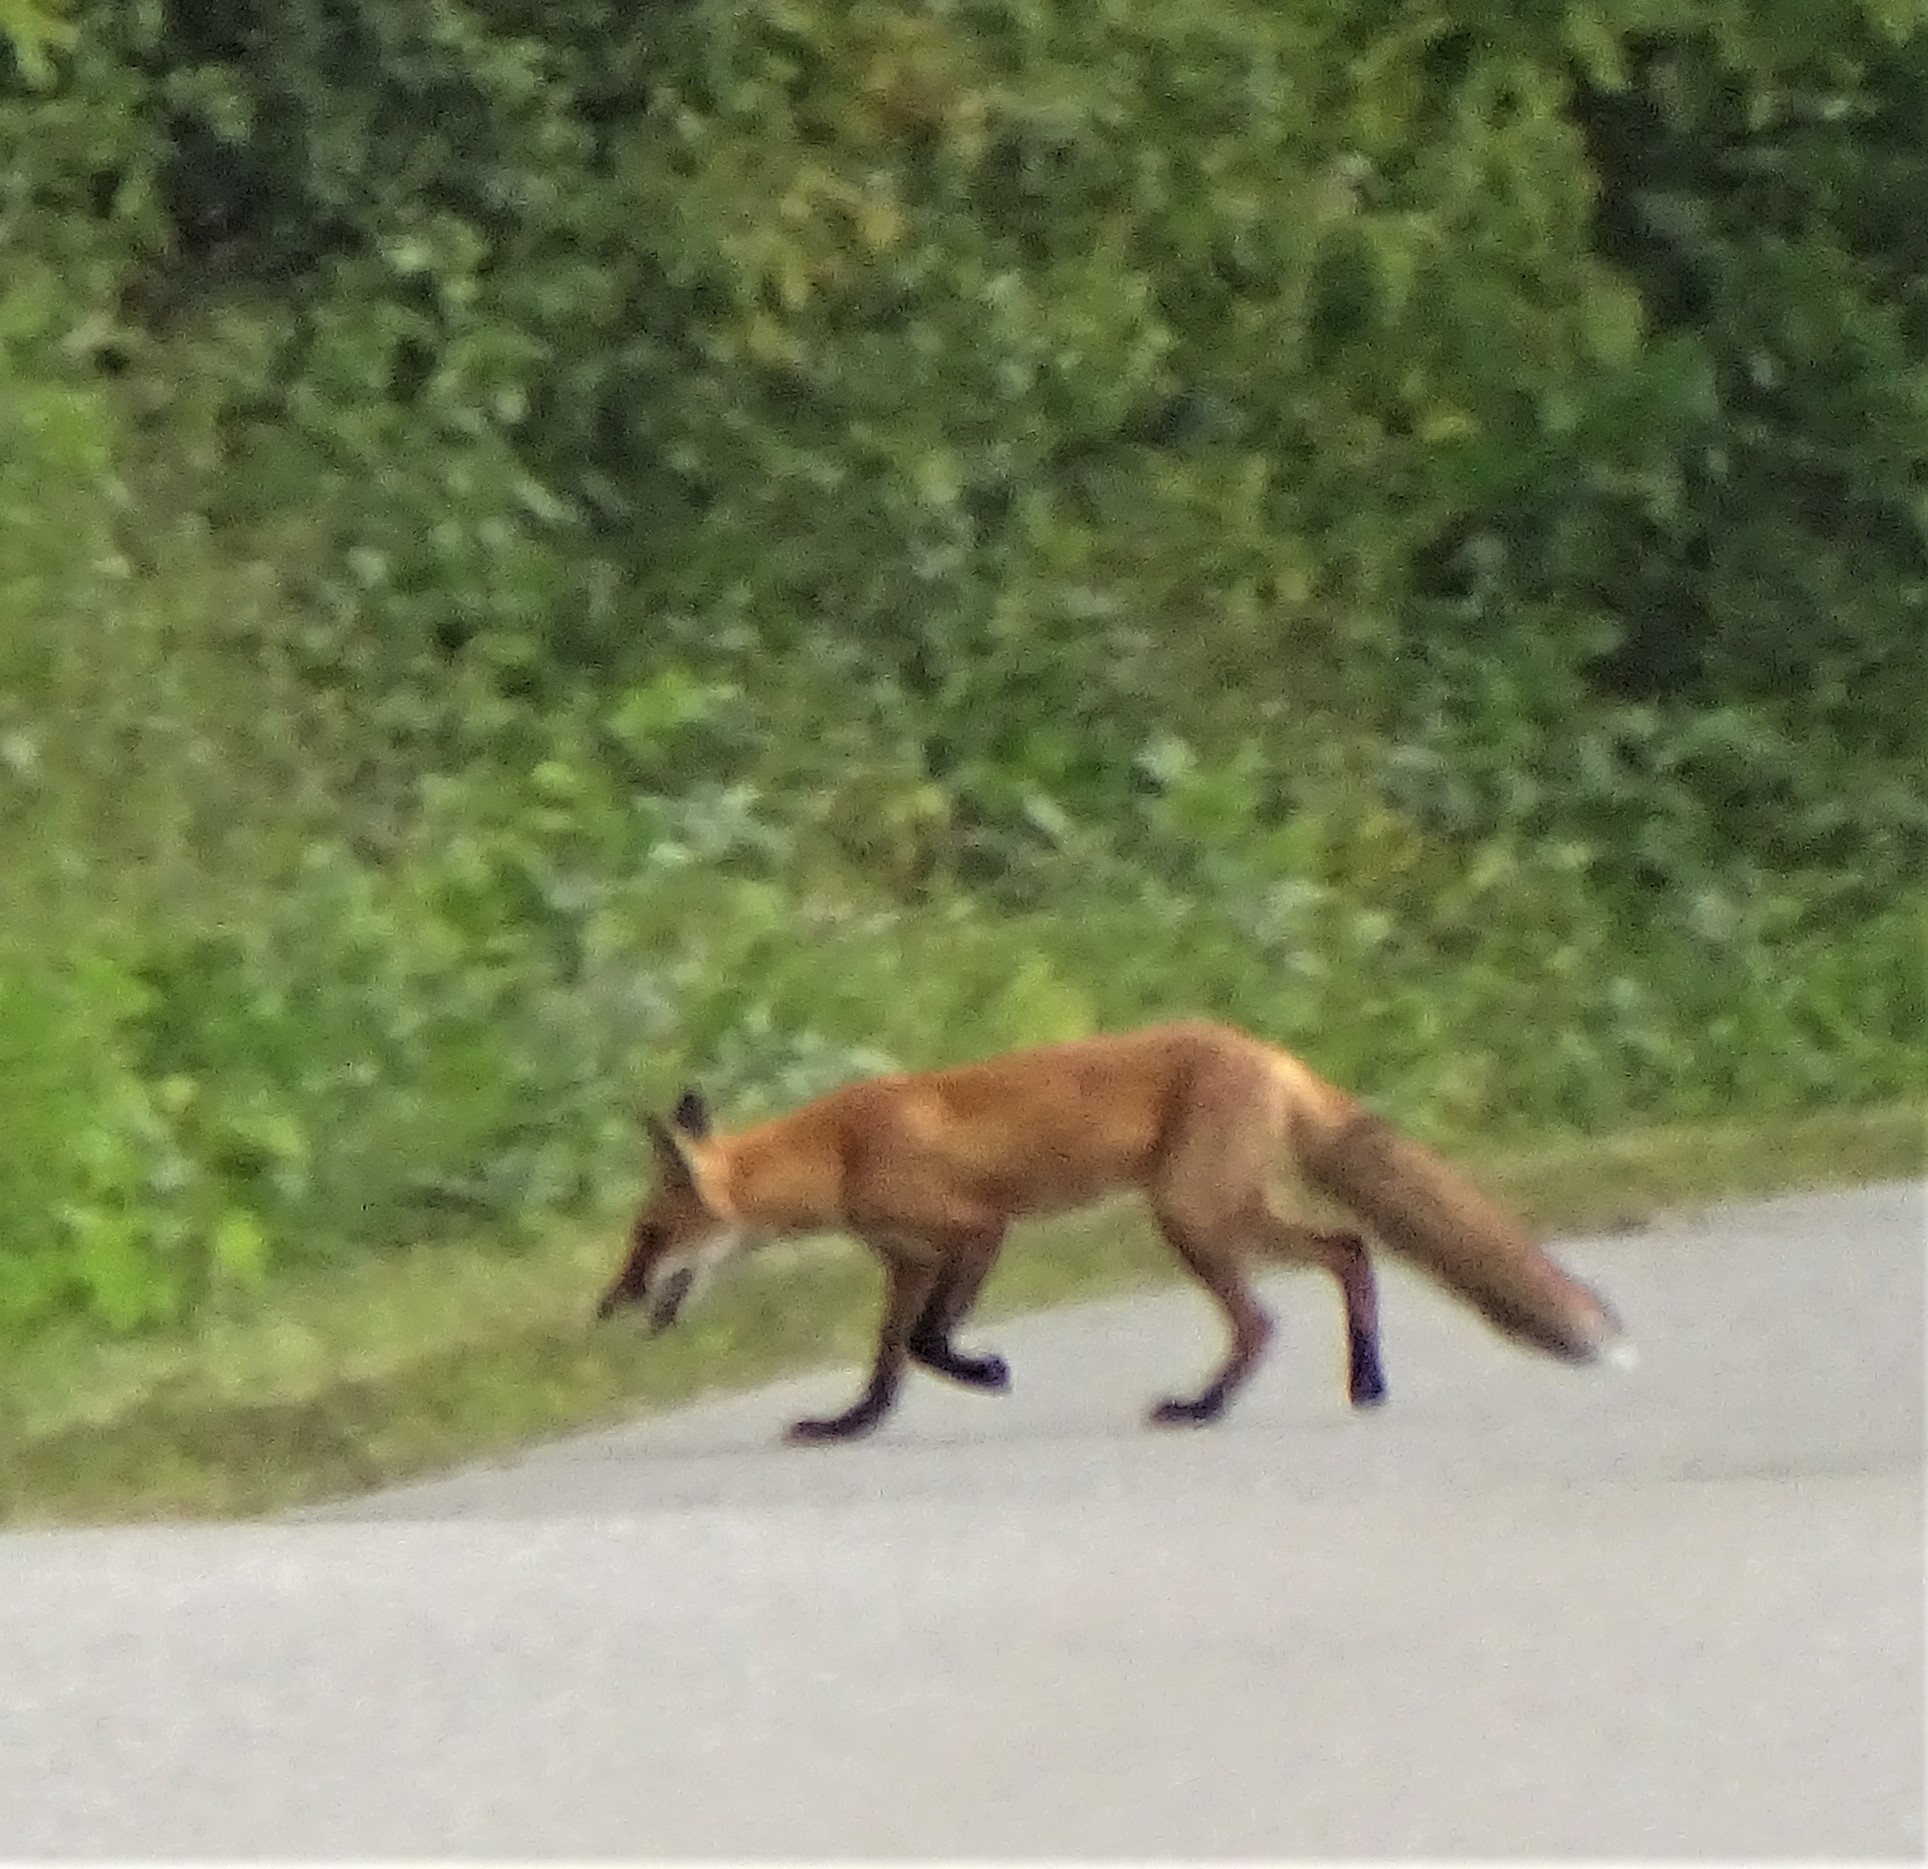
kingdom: Animalia
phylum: Chordata
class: Mammalia
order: Carnivora
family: Canidae
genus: Vulpes
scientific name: Vulpes vulpes
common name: Red fox
